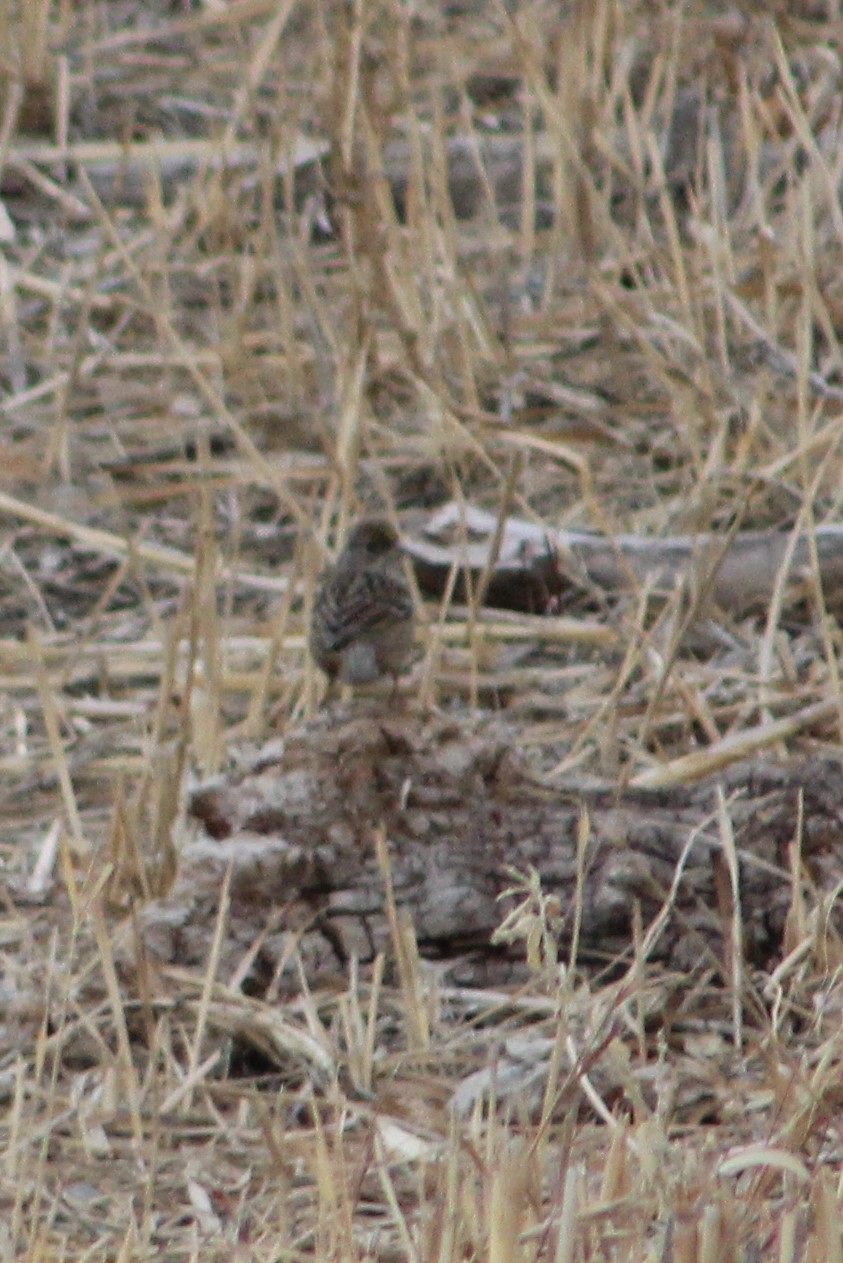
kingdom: Animalia
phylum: Chordata
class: Aves
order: Passeriformes
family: Passerellidae
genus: Zonotrichia
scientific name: Zonotrichia atricapilla
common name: Golden-crowned sparrow
